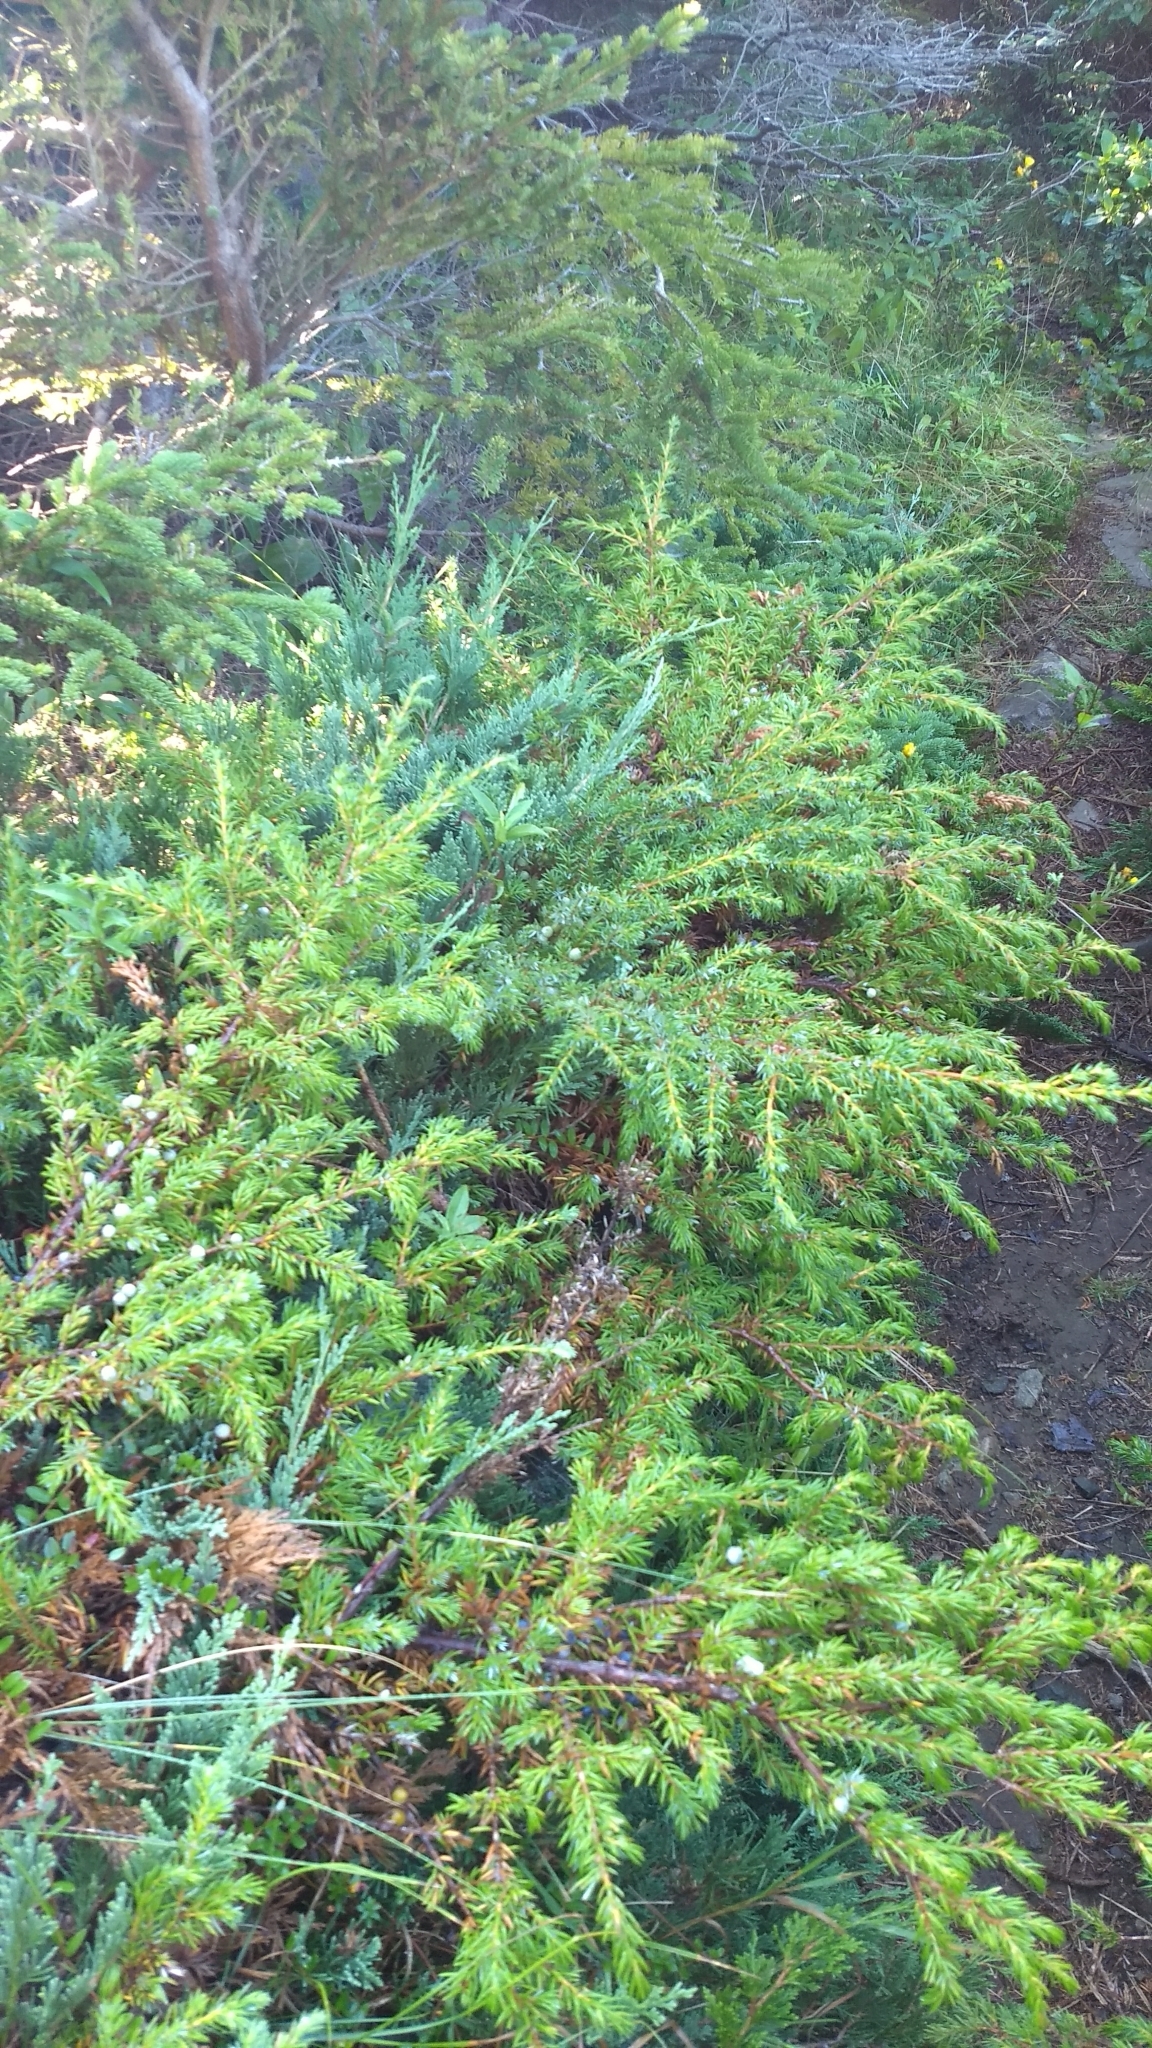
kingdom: Plantae
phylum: Tracheophyta
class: Pinopsida
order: Pinales
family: Cupressaceae
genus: Juniperus
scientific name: Juniperus horizontalis
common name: Creeping juniper
